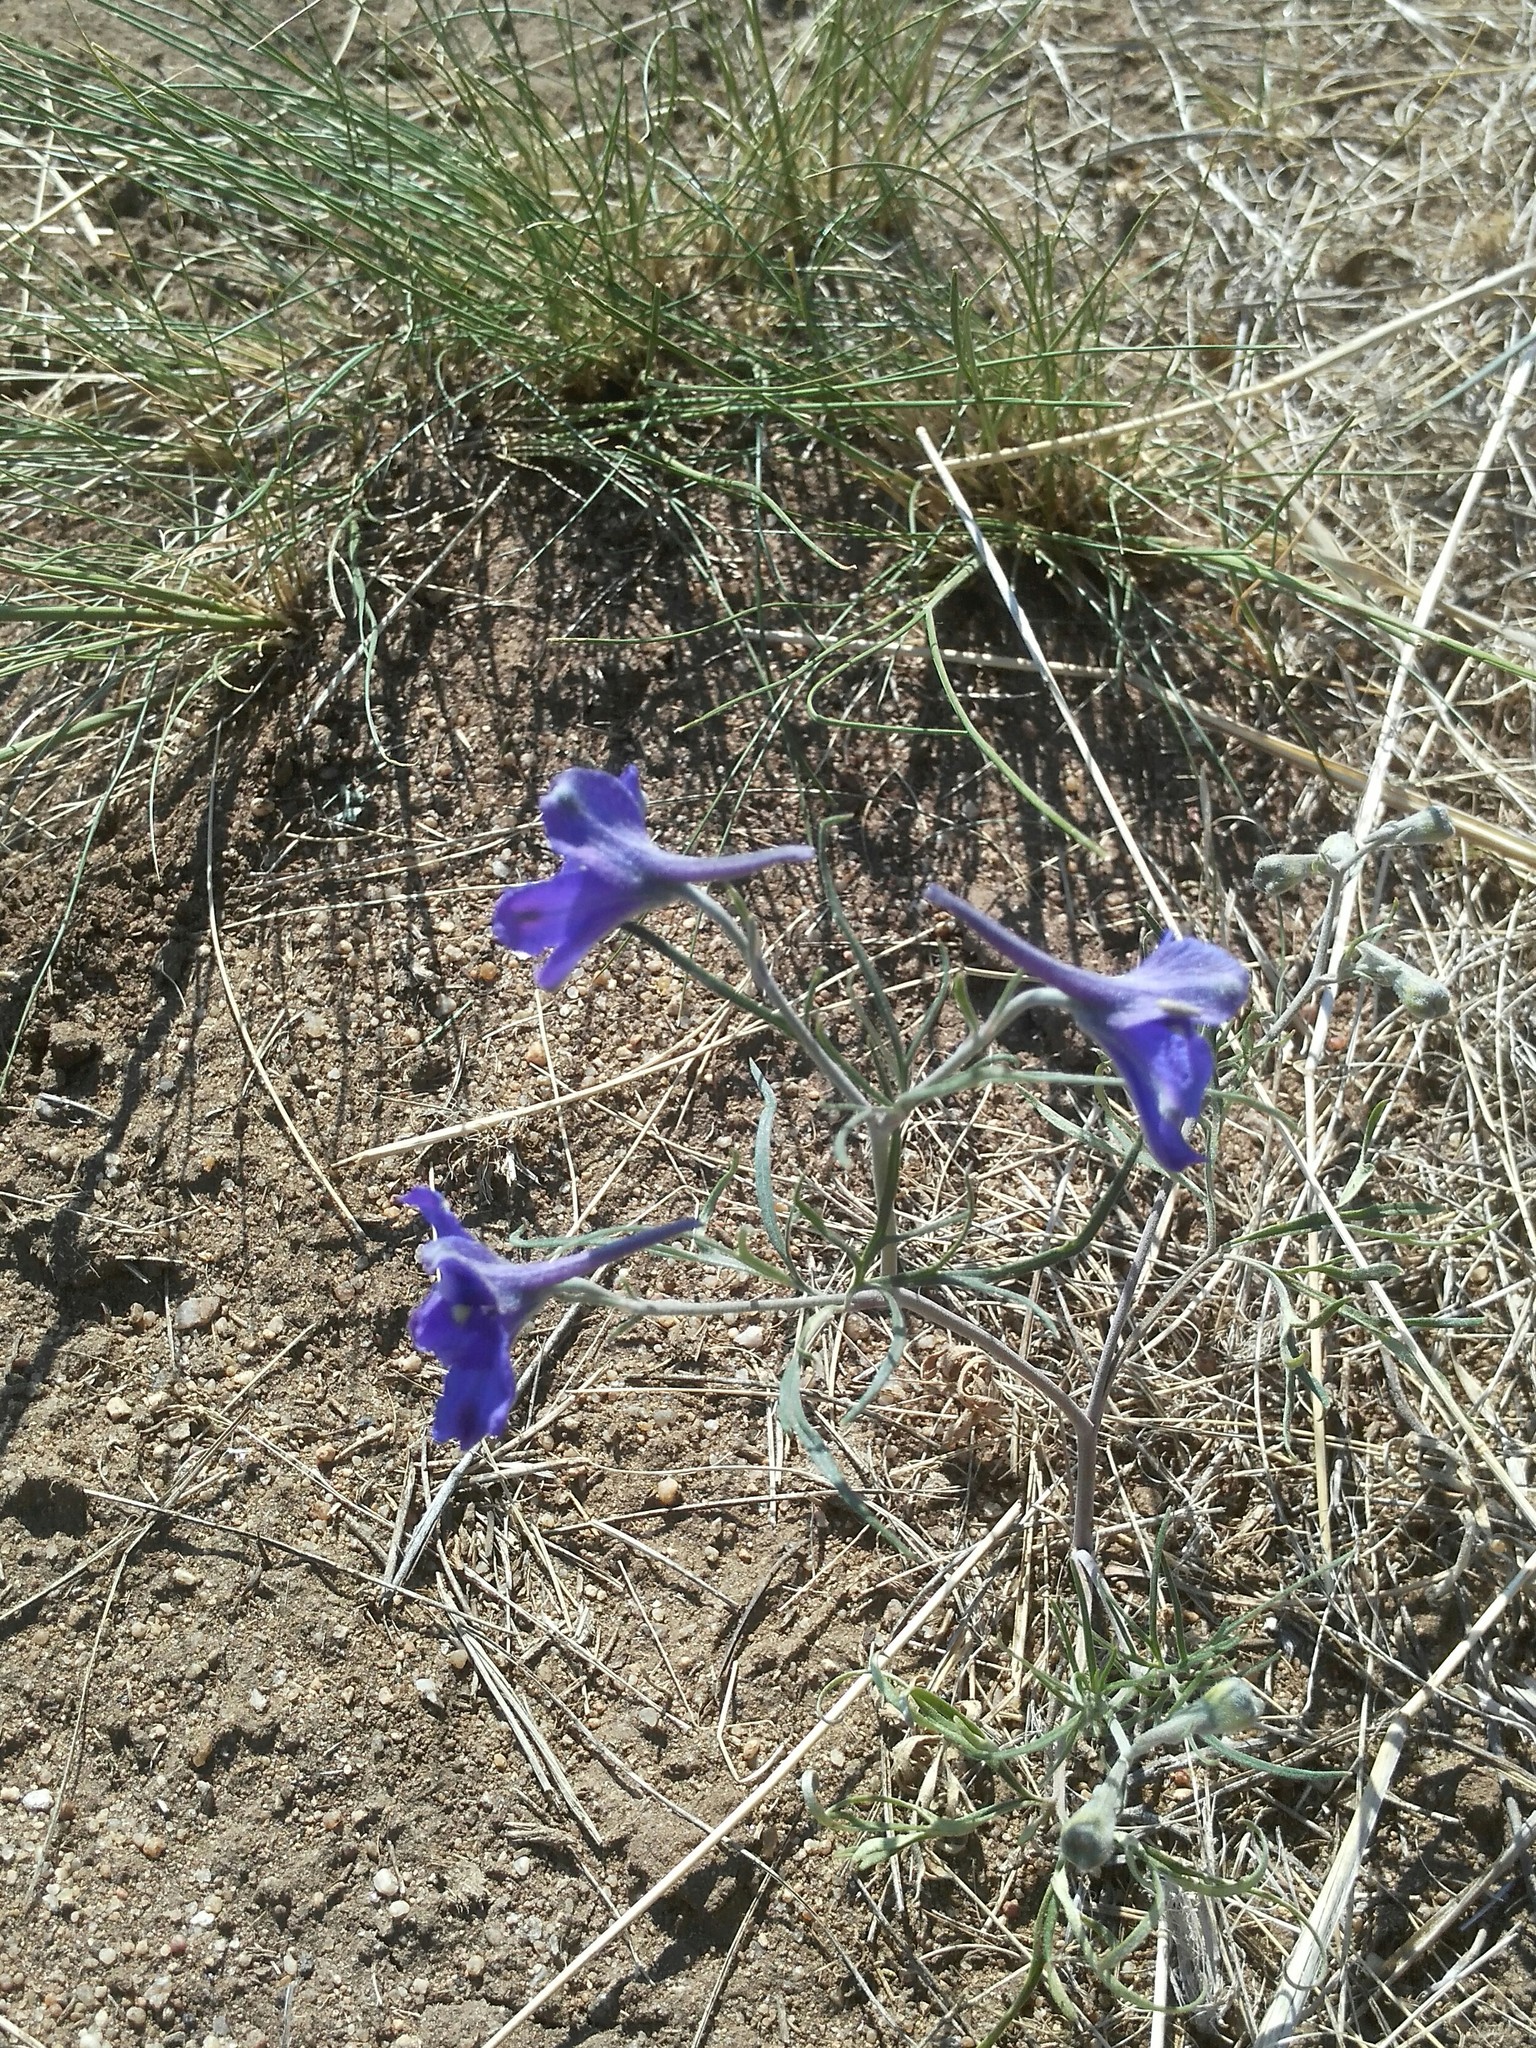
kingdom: Plantae
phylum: Tracheophyta
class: Magnoliopsida
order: Ranunculales
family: Ranunculaceae
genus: Delphinium
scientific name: Delphinium grandiflorum
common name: Siberian larkspur
